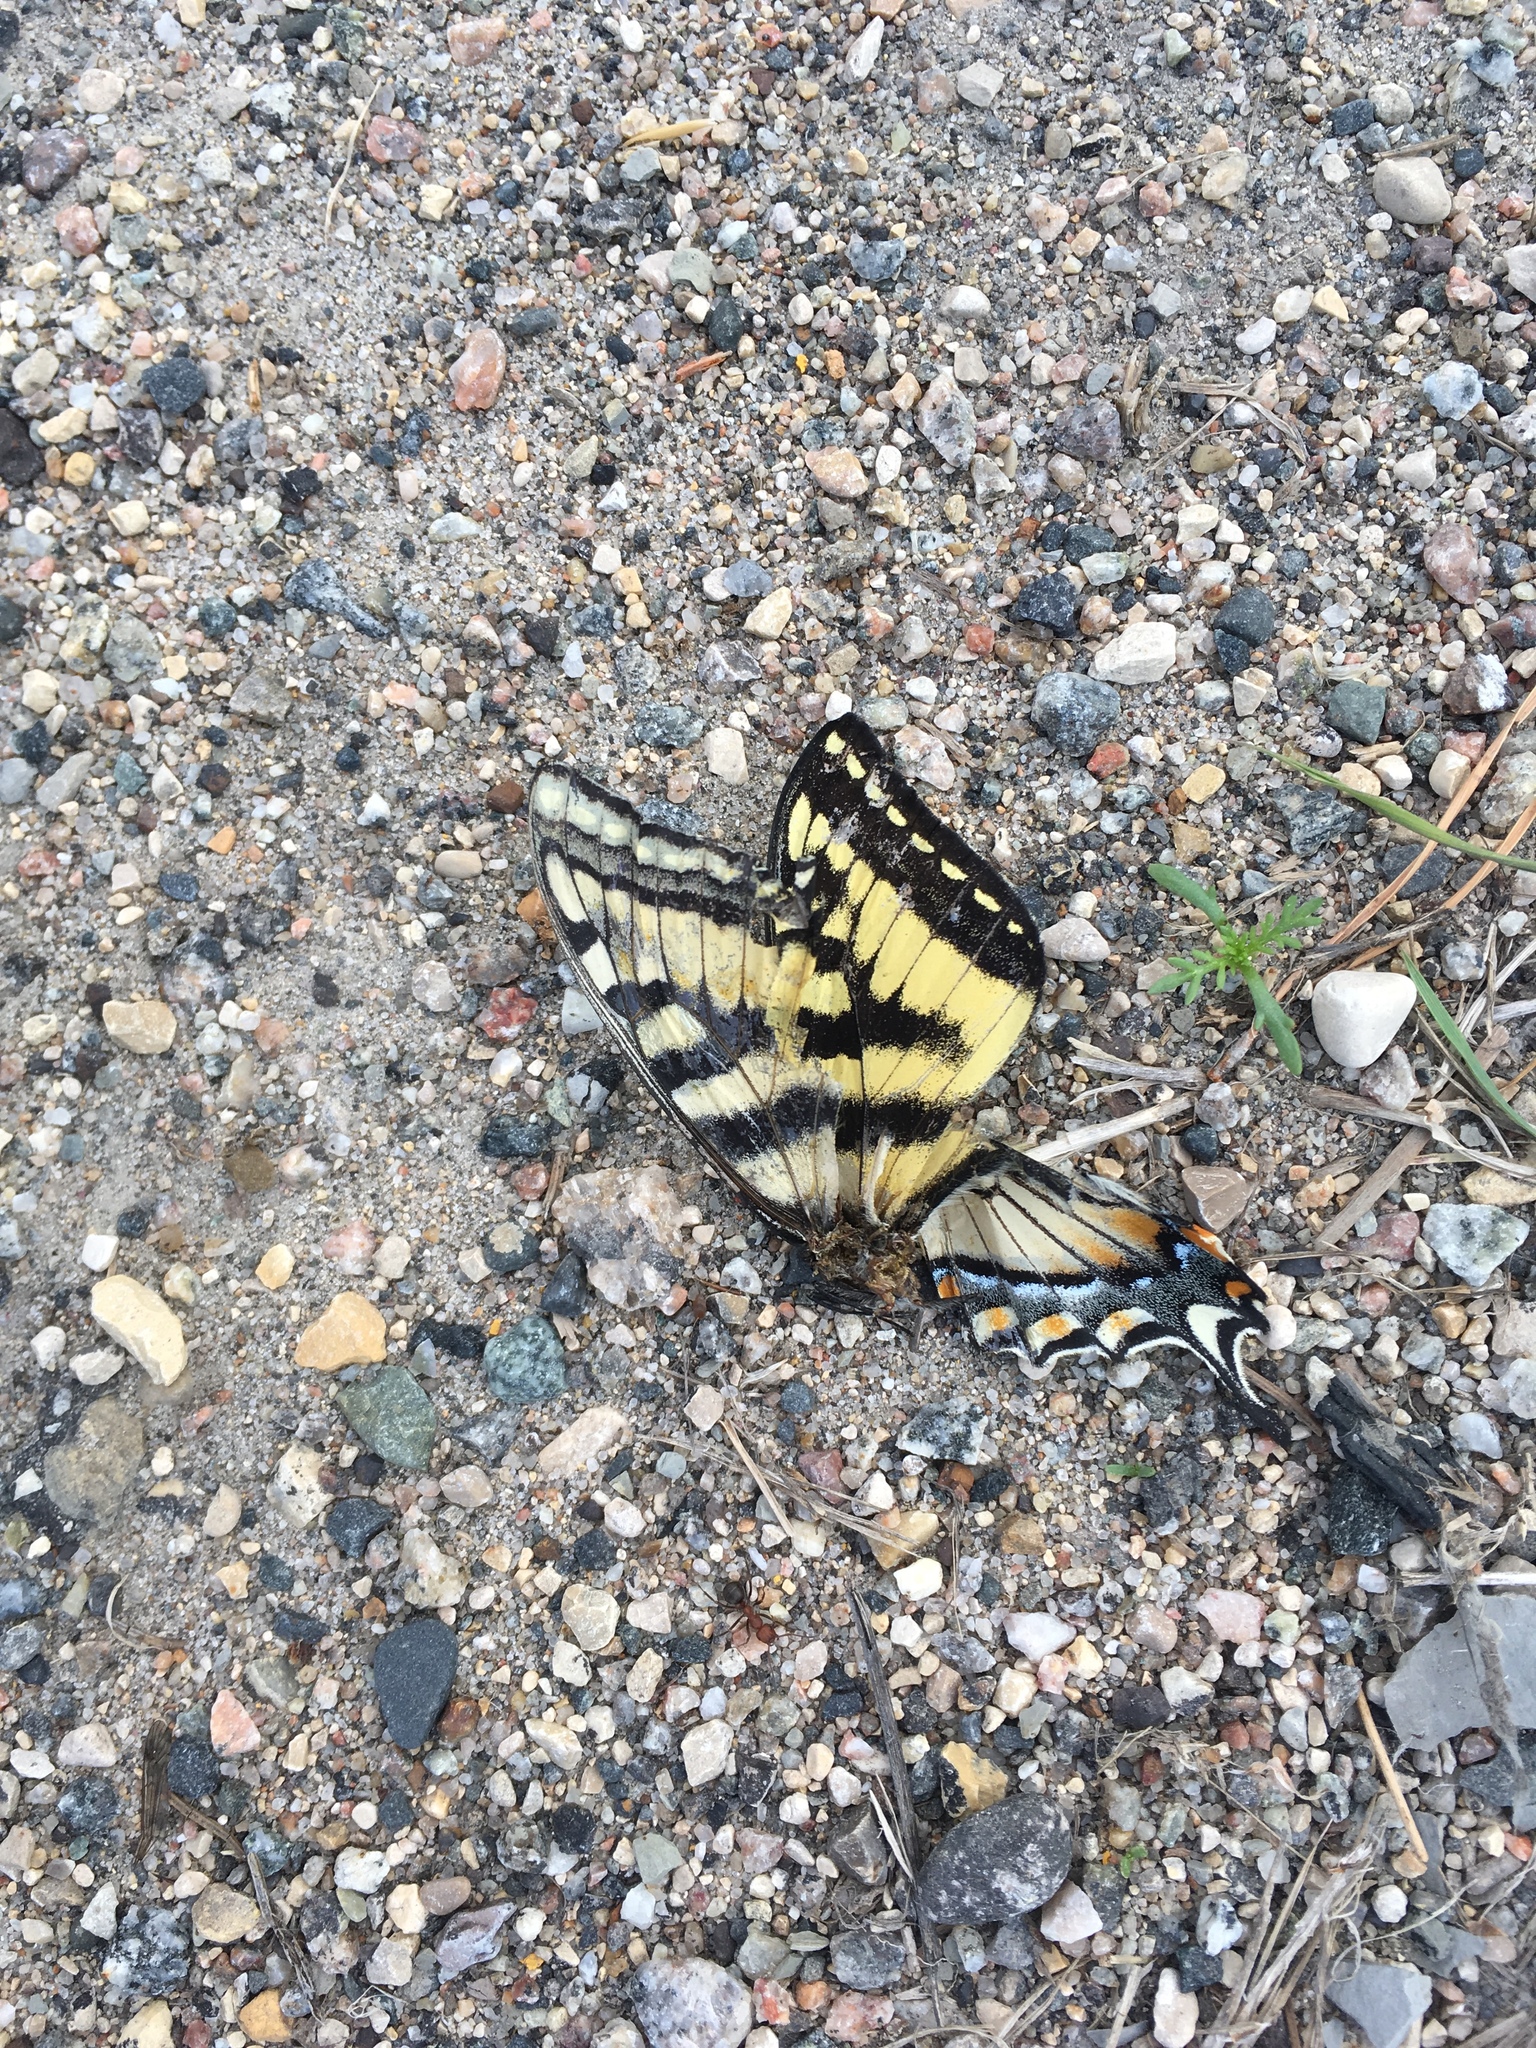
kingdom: Animalia
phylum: Arthropoda
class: Insecta
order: Lepidoptera
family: Papilionidae
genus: Papilio
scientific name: Papilio canadensis
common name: Canadian tiger swallowtail
